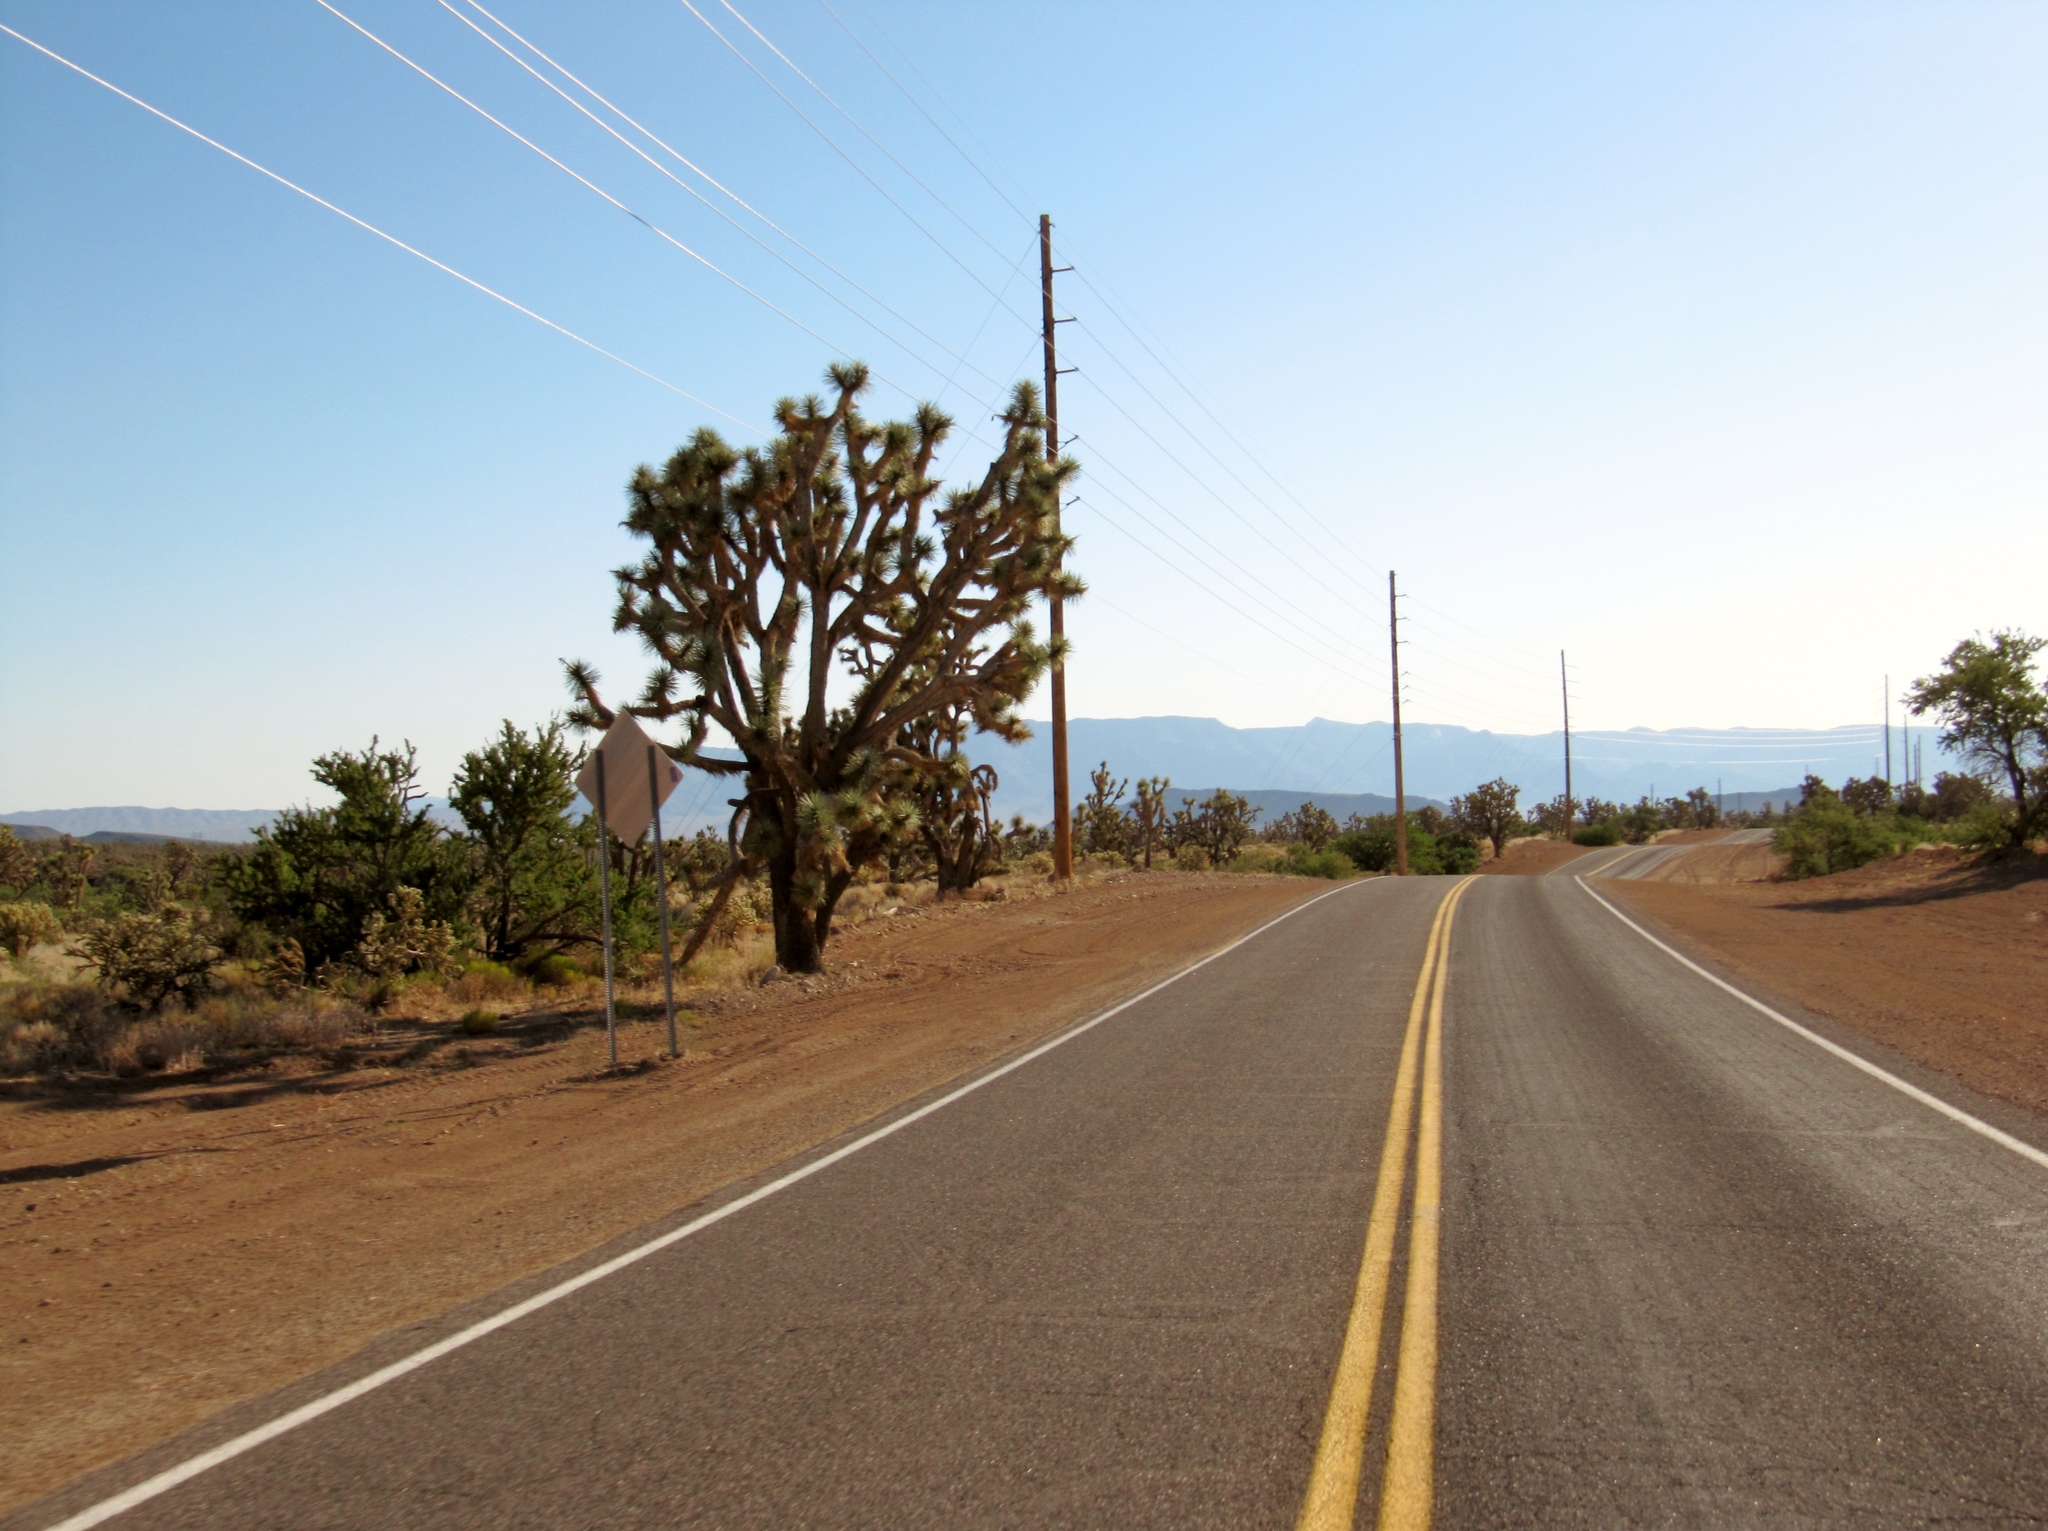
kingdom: Plantae
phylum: Tracheophyta
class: Liliopsida
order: Asparagales
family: Asparagaceae
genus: Yucca
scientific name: Yucca brevifolia
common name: Joshua tree
